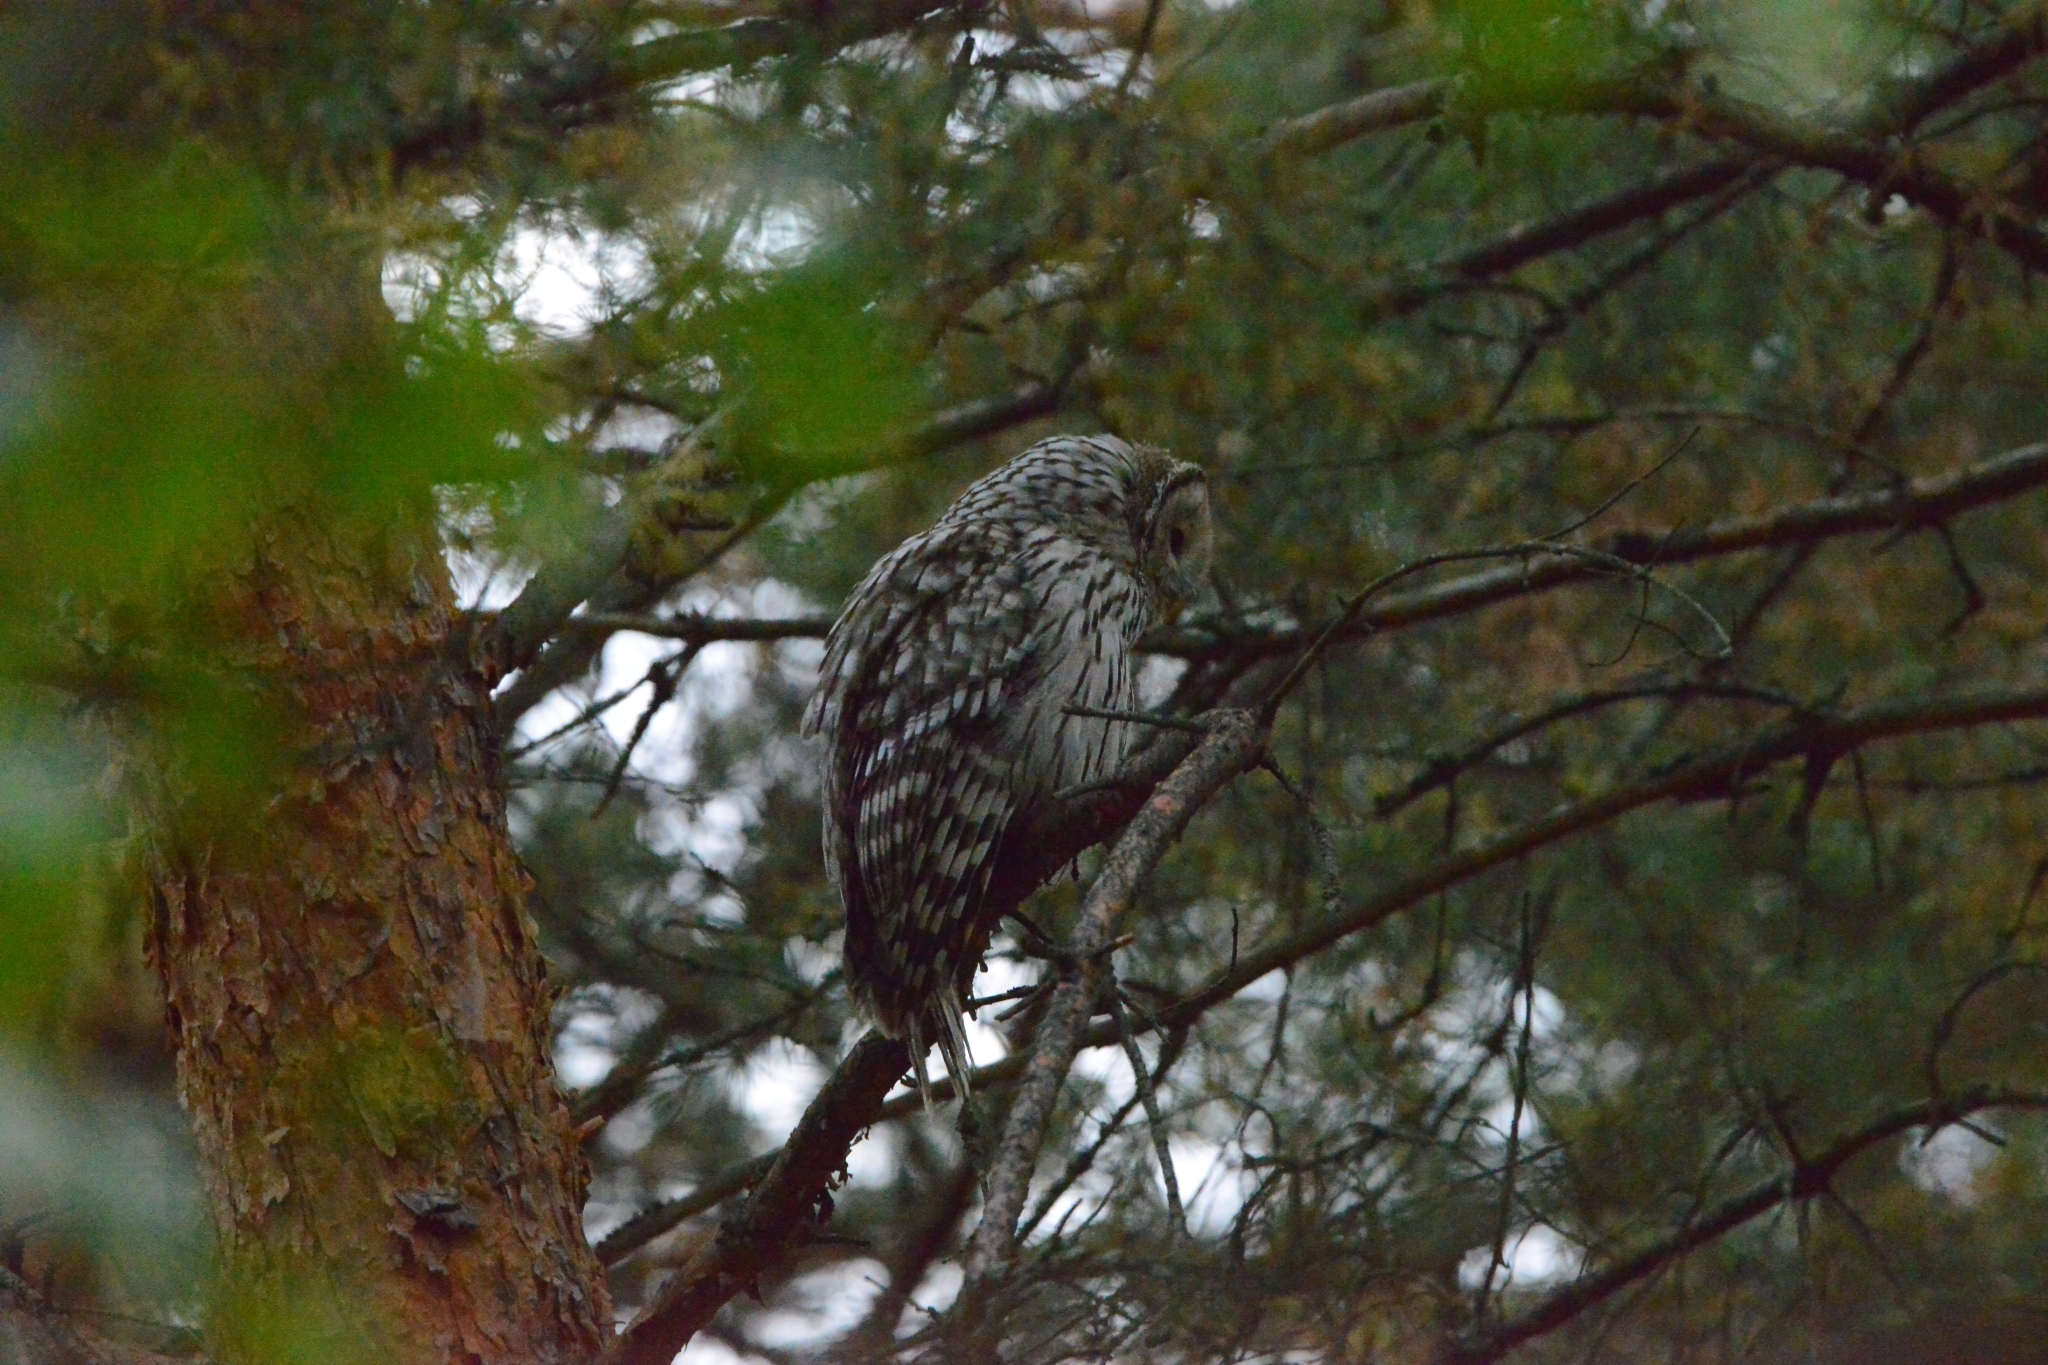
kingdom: Animalia
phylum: Chordata
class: Aves
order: Strigiformes
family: Strigidae
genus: Strix
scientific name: Strix uralensis
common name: Ural owl
